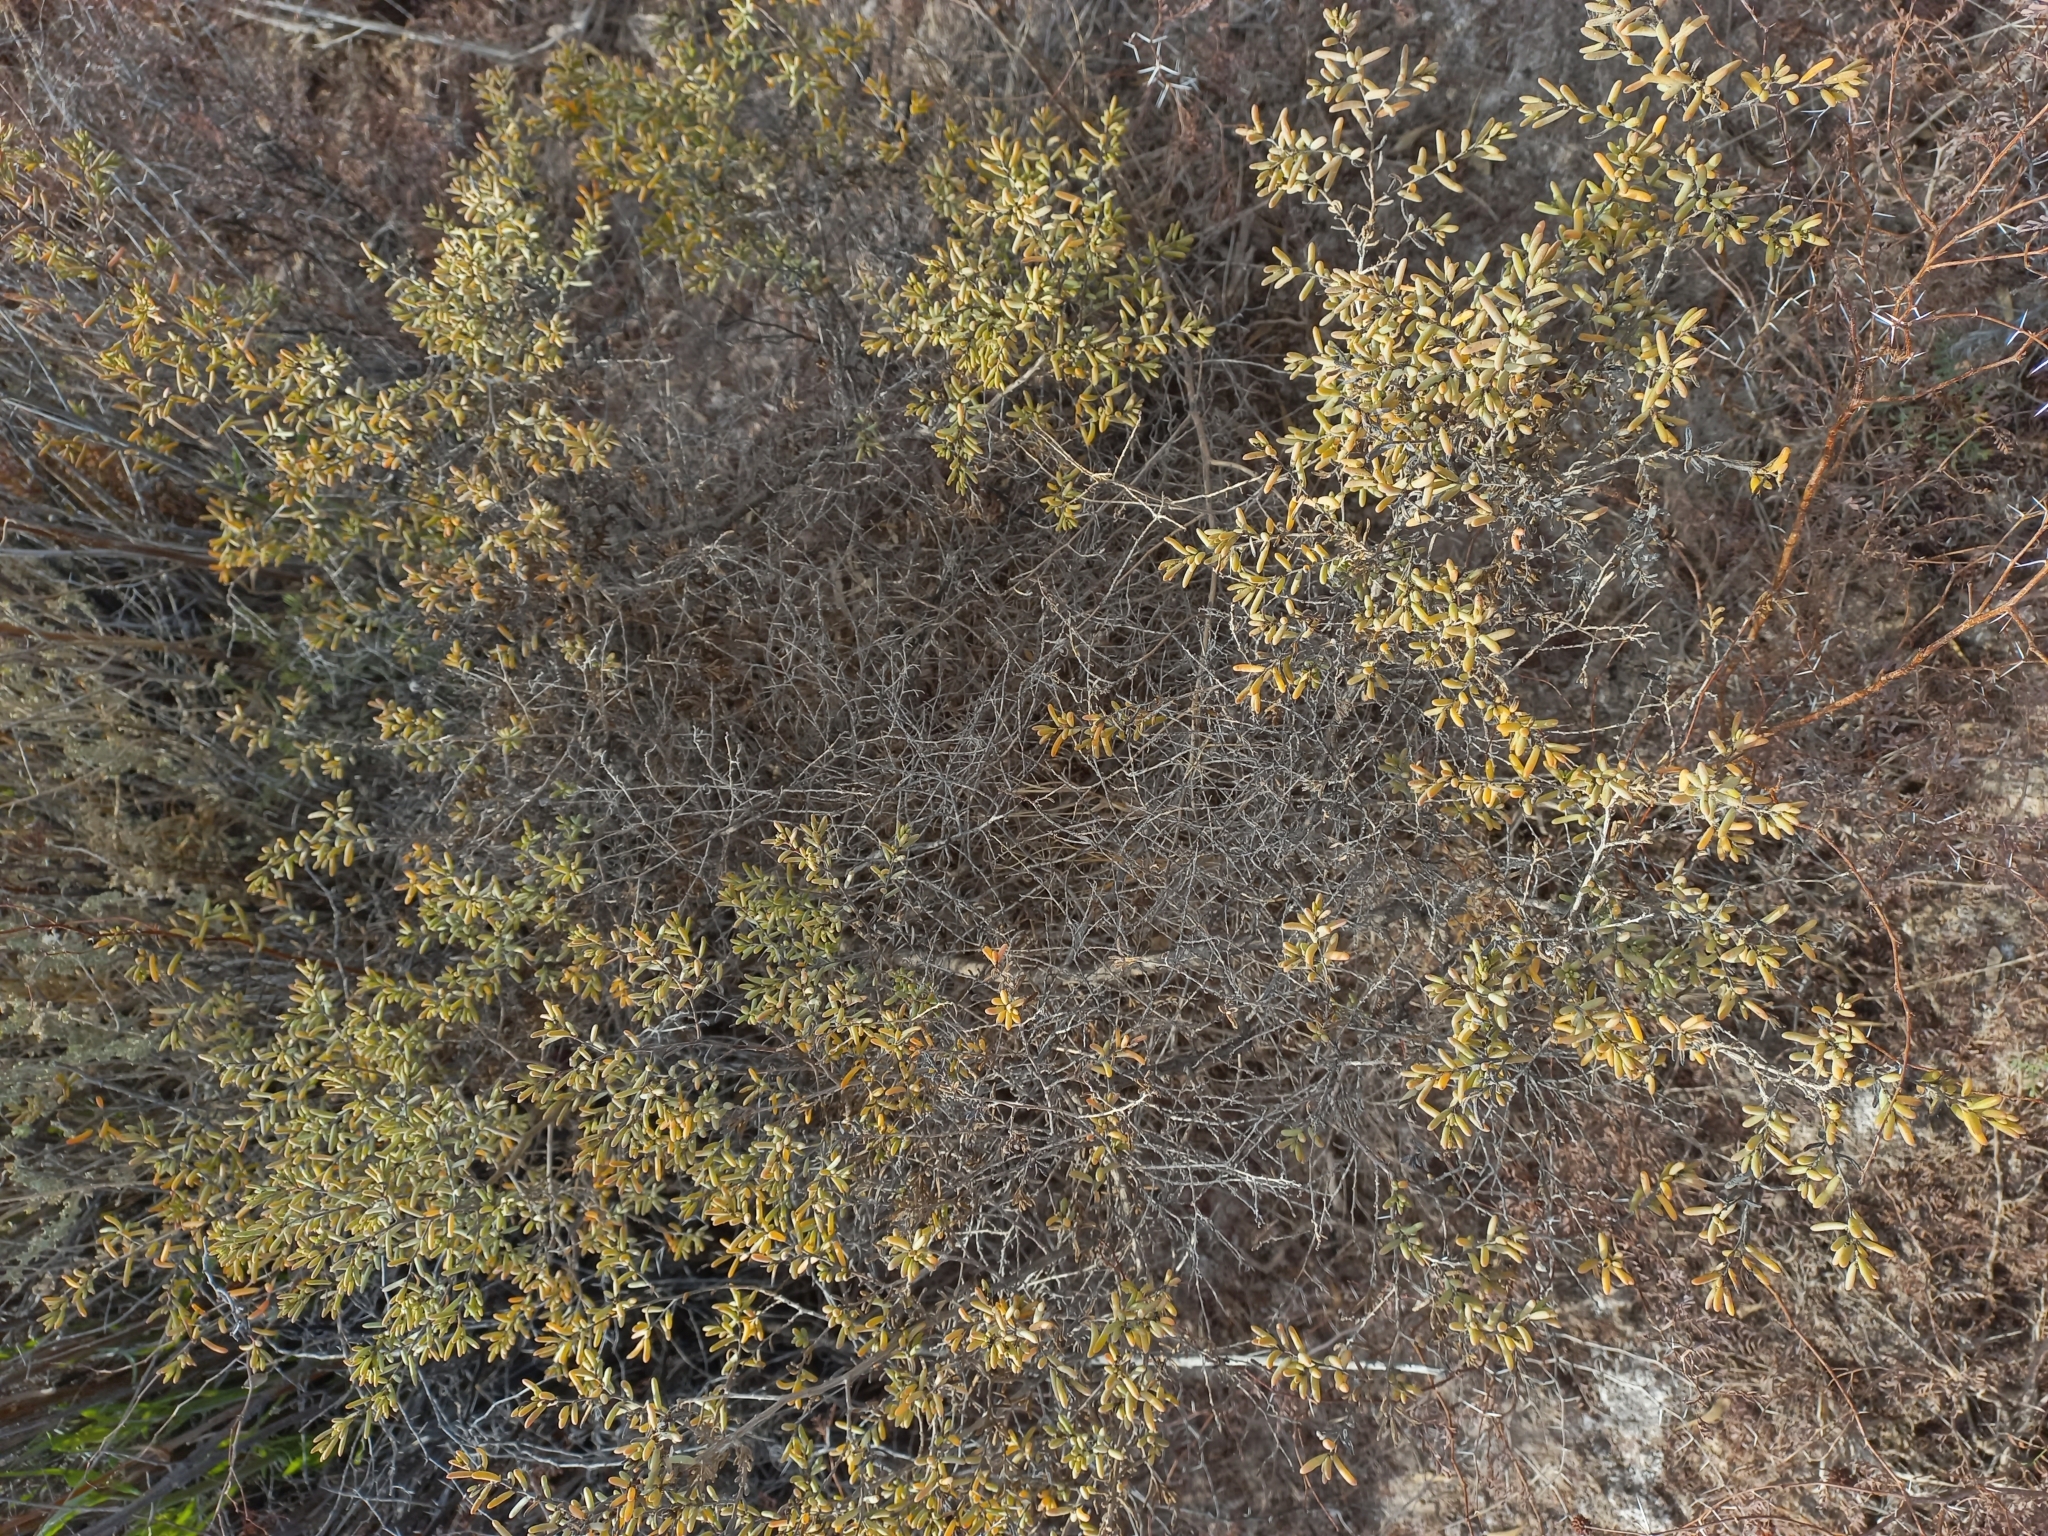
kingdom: Plantae
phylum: Tracheophyta
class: Magnoliopsida
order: Caryophyllales
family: Amaranthaceae
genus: Suaeda
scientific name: Suaeda divaricata
